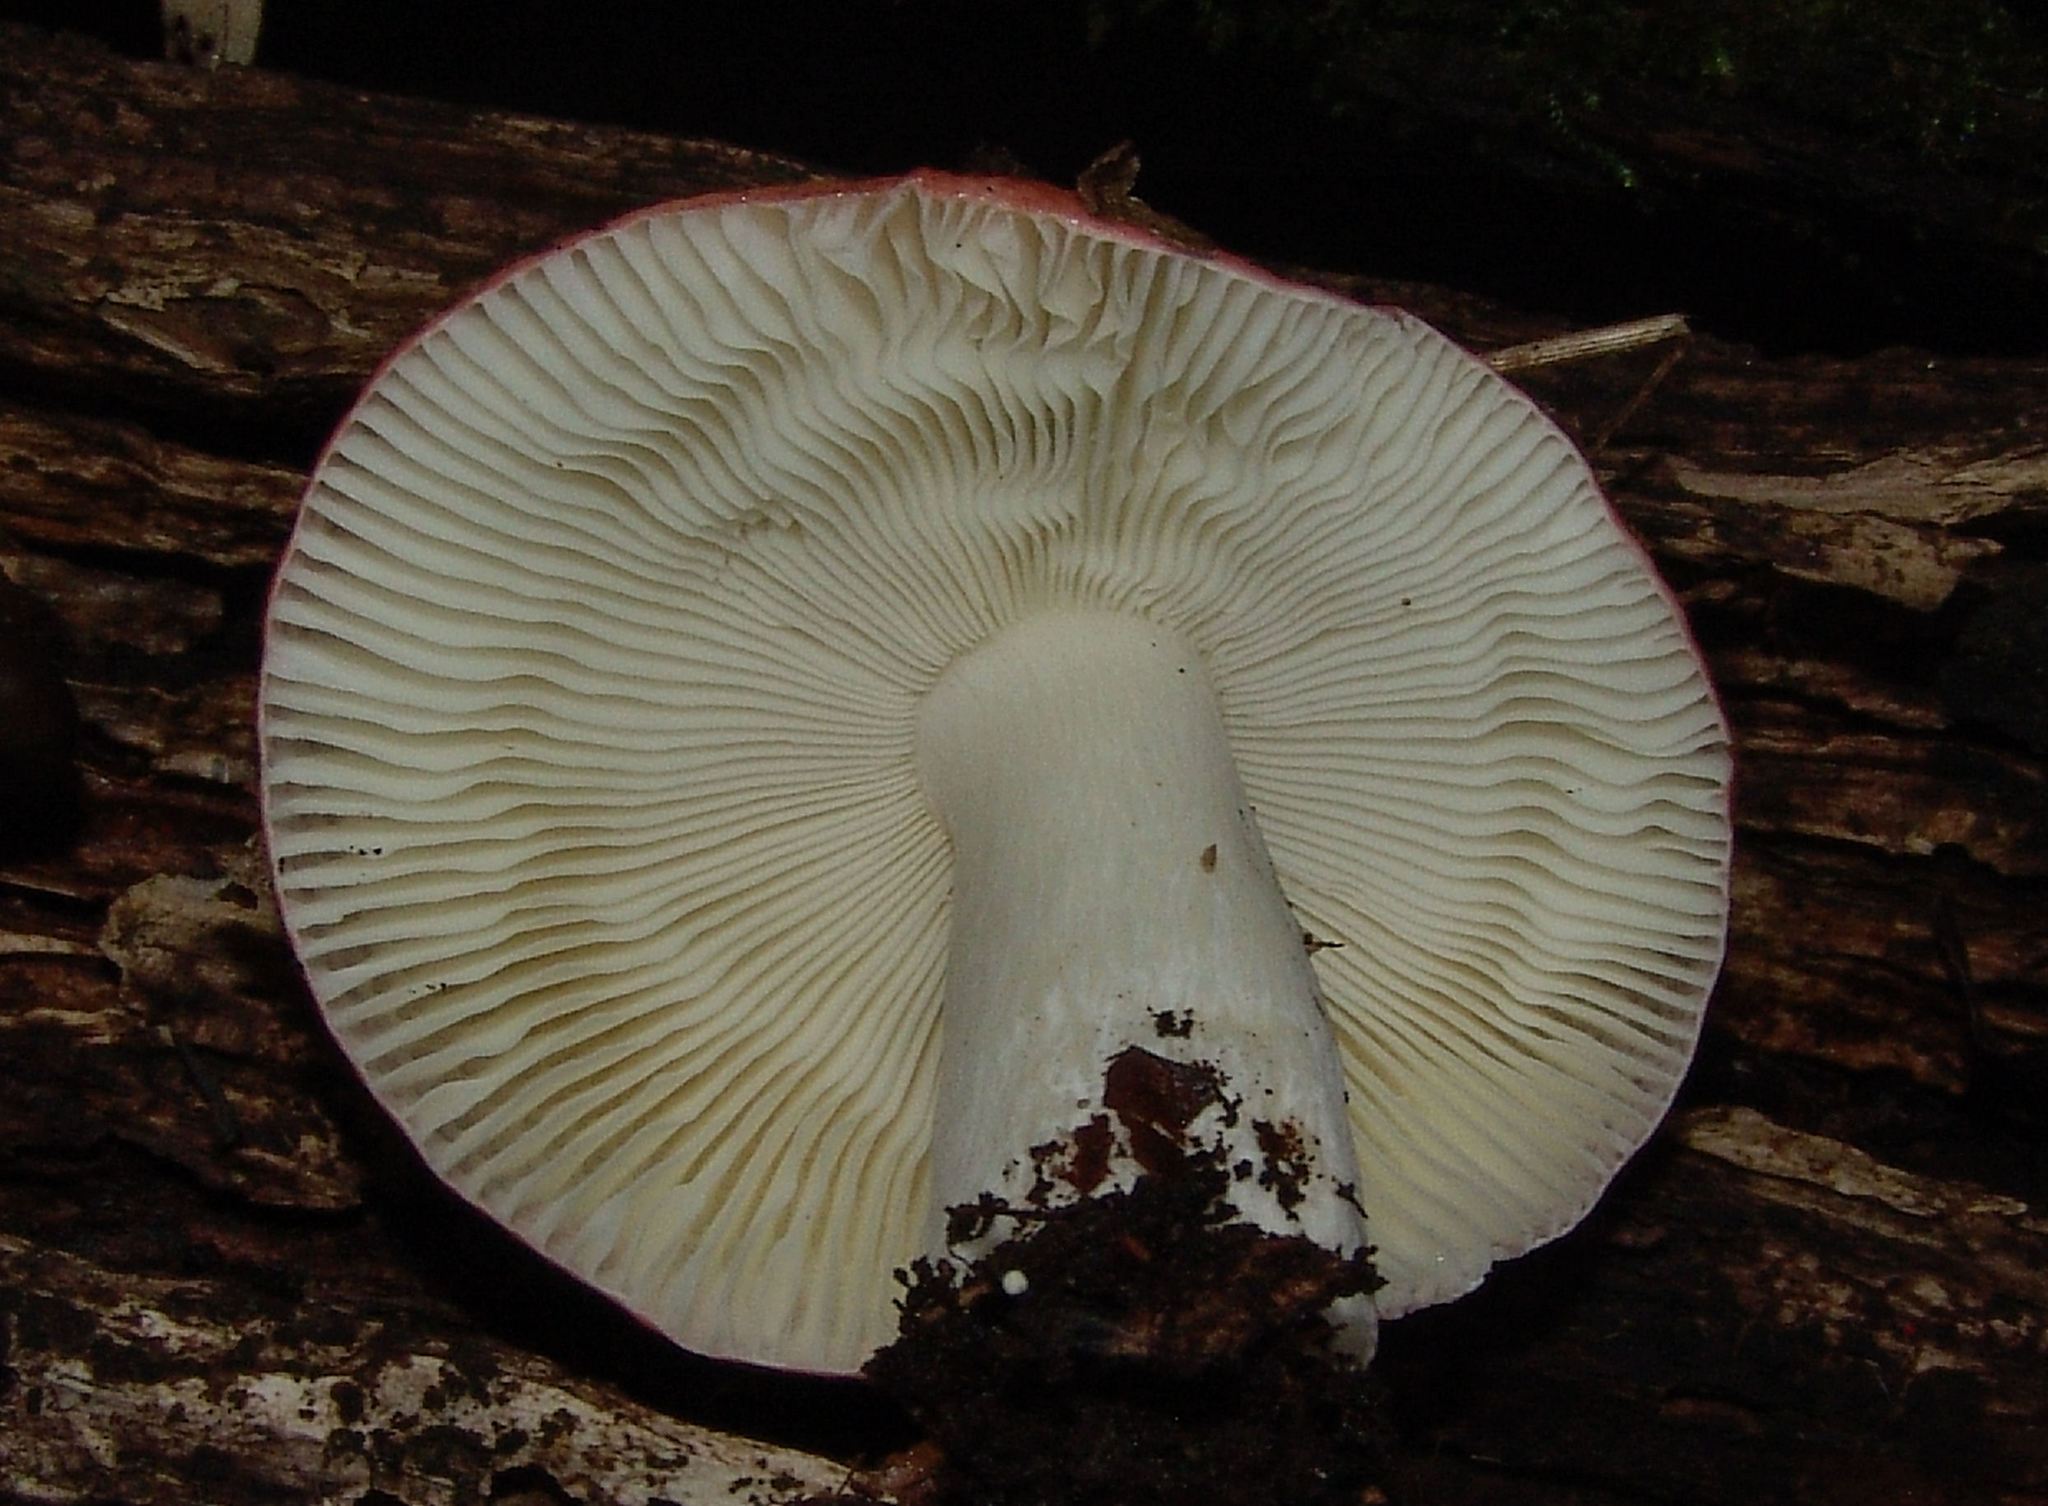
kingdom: Fungi
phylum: Basidiomycota
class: Agaricomycetes
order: Russulales
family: Russulaceae
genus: Russula
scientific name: Russula
